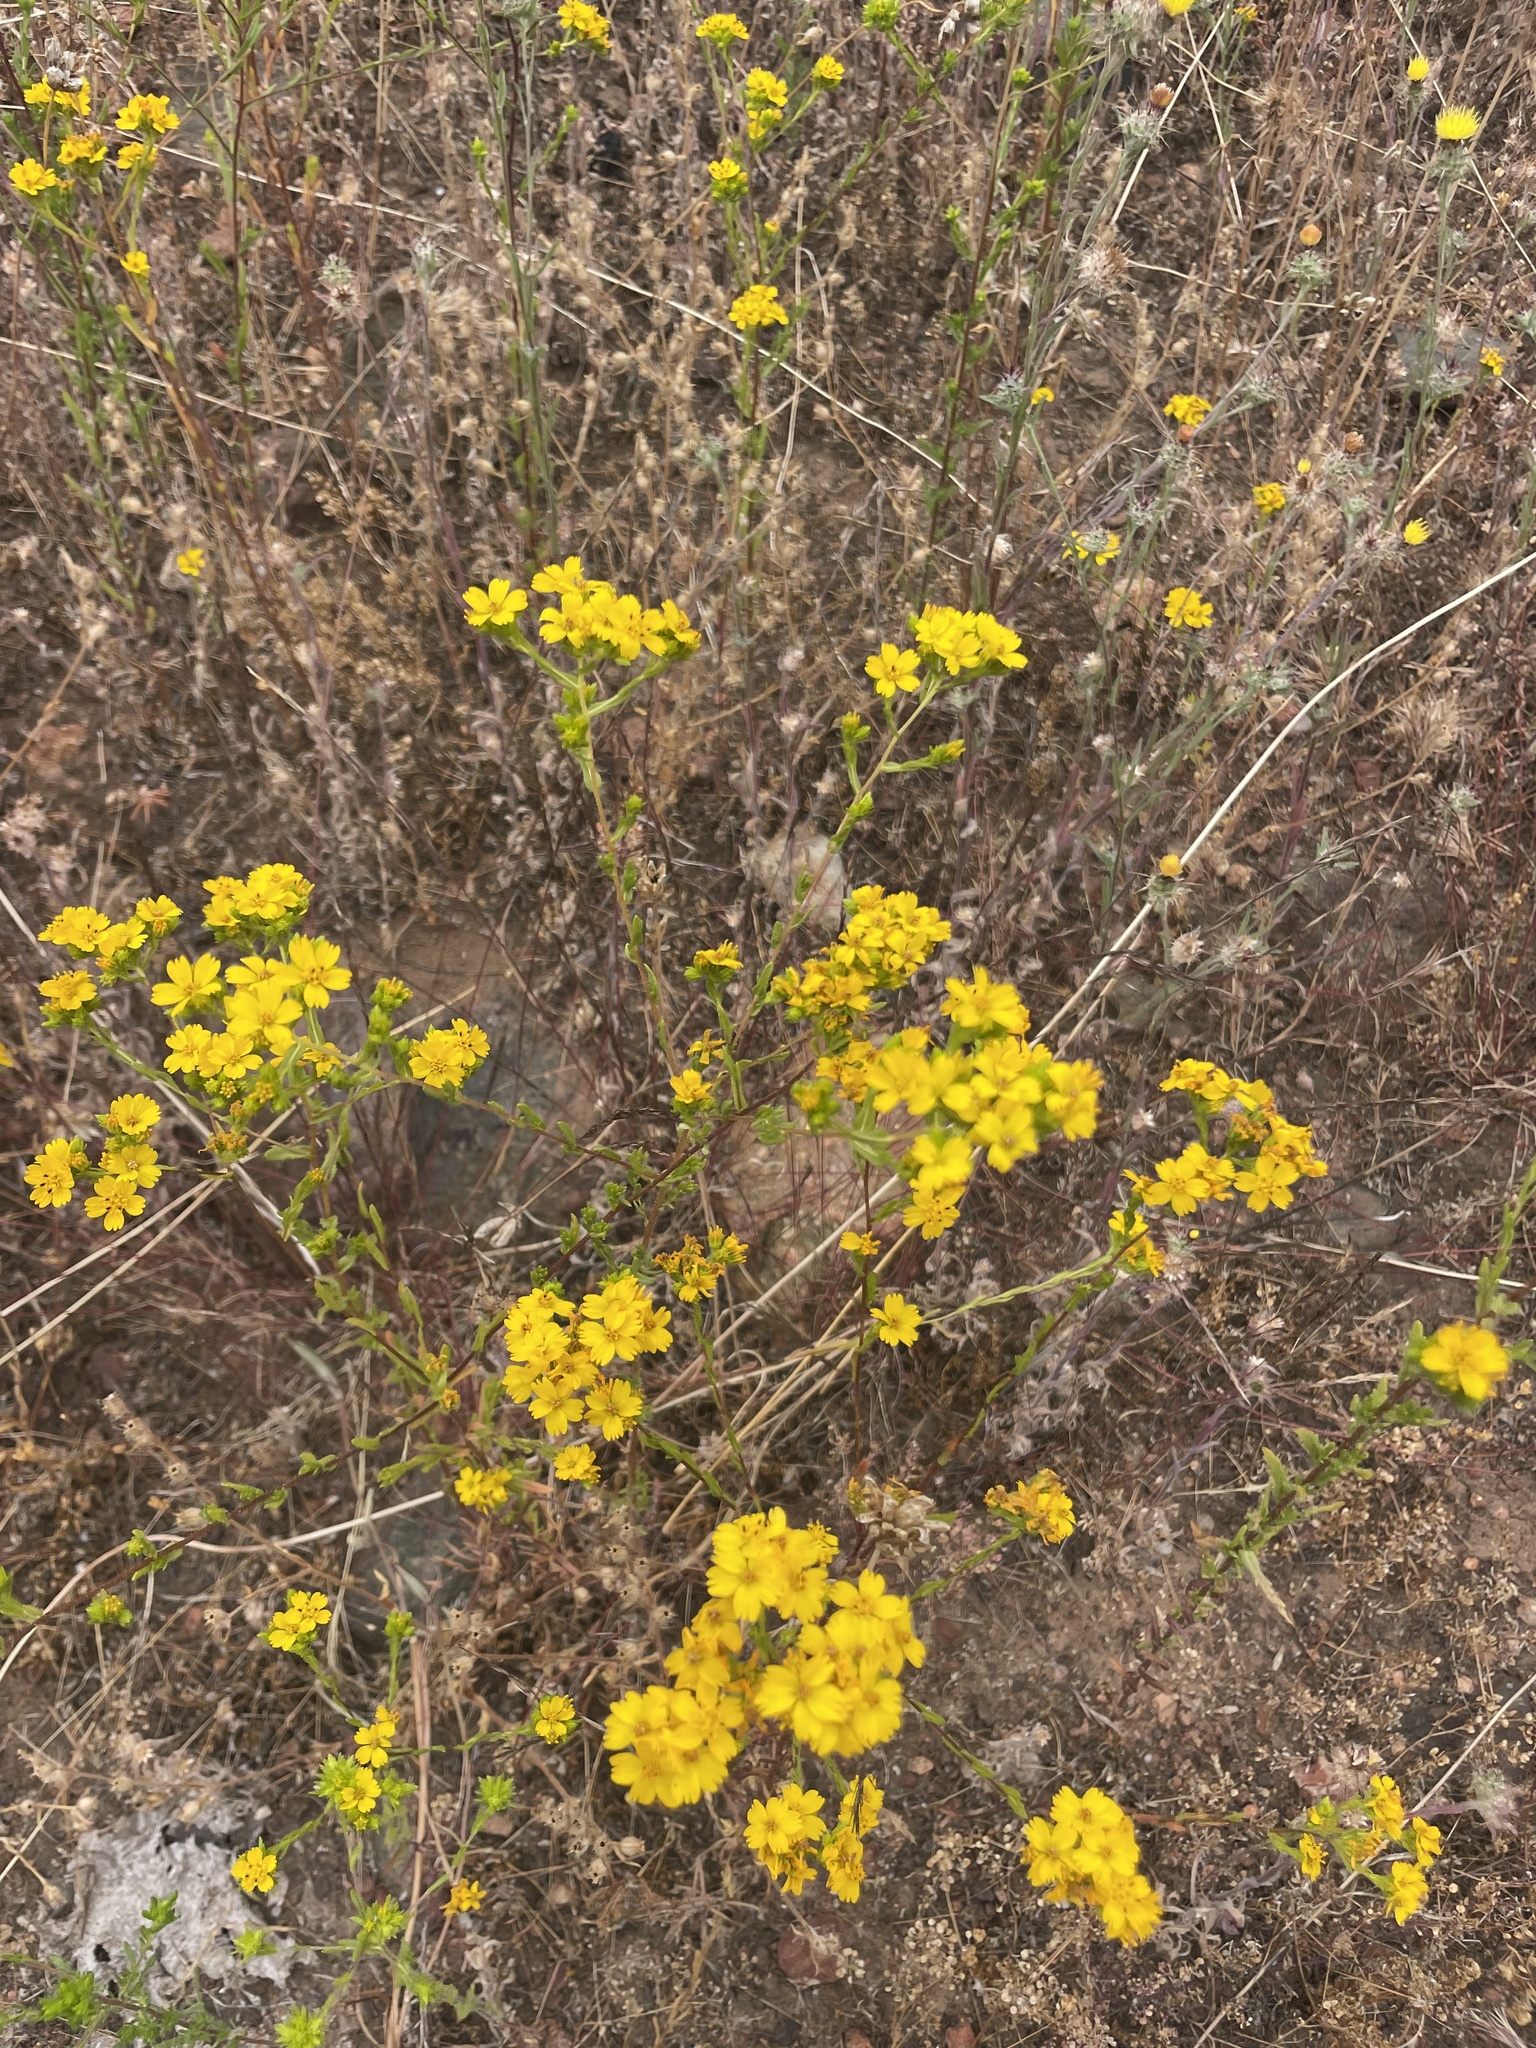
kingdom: Plantae
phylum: Tracheophyta
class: Magnoliopsida
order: Asterales
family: Asteraceae
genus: Deinandra
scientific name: Deinandra fasciculata
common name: Clustered tarweed
